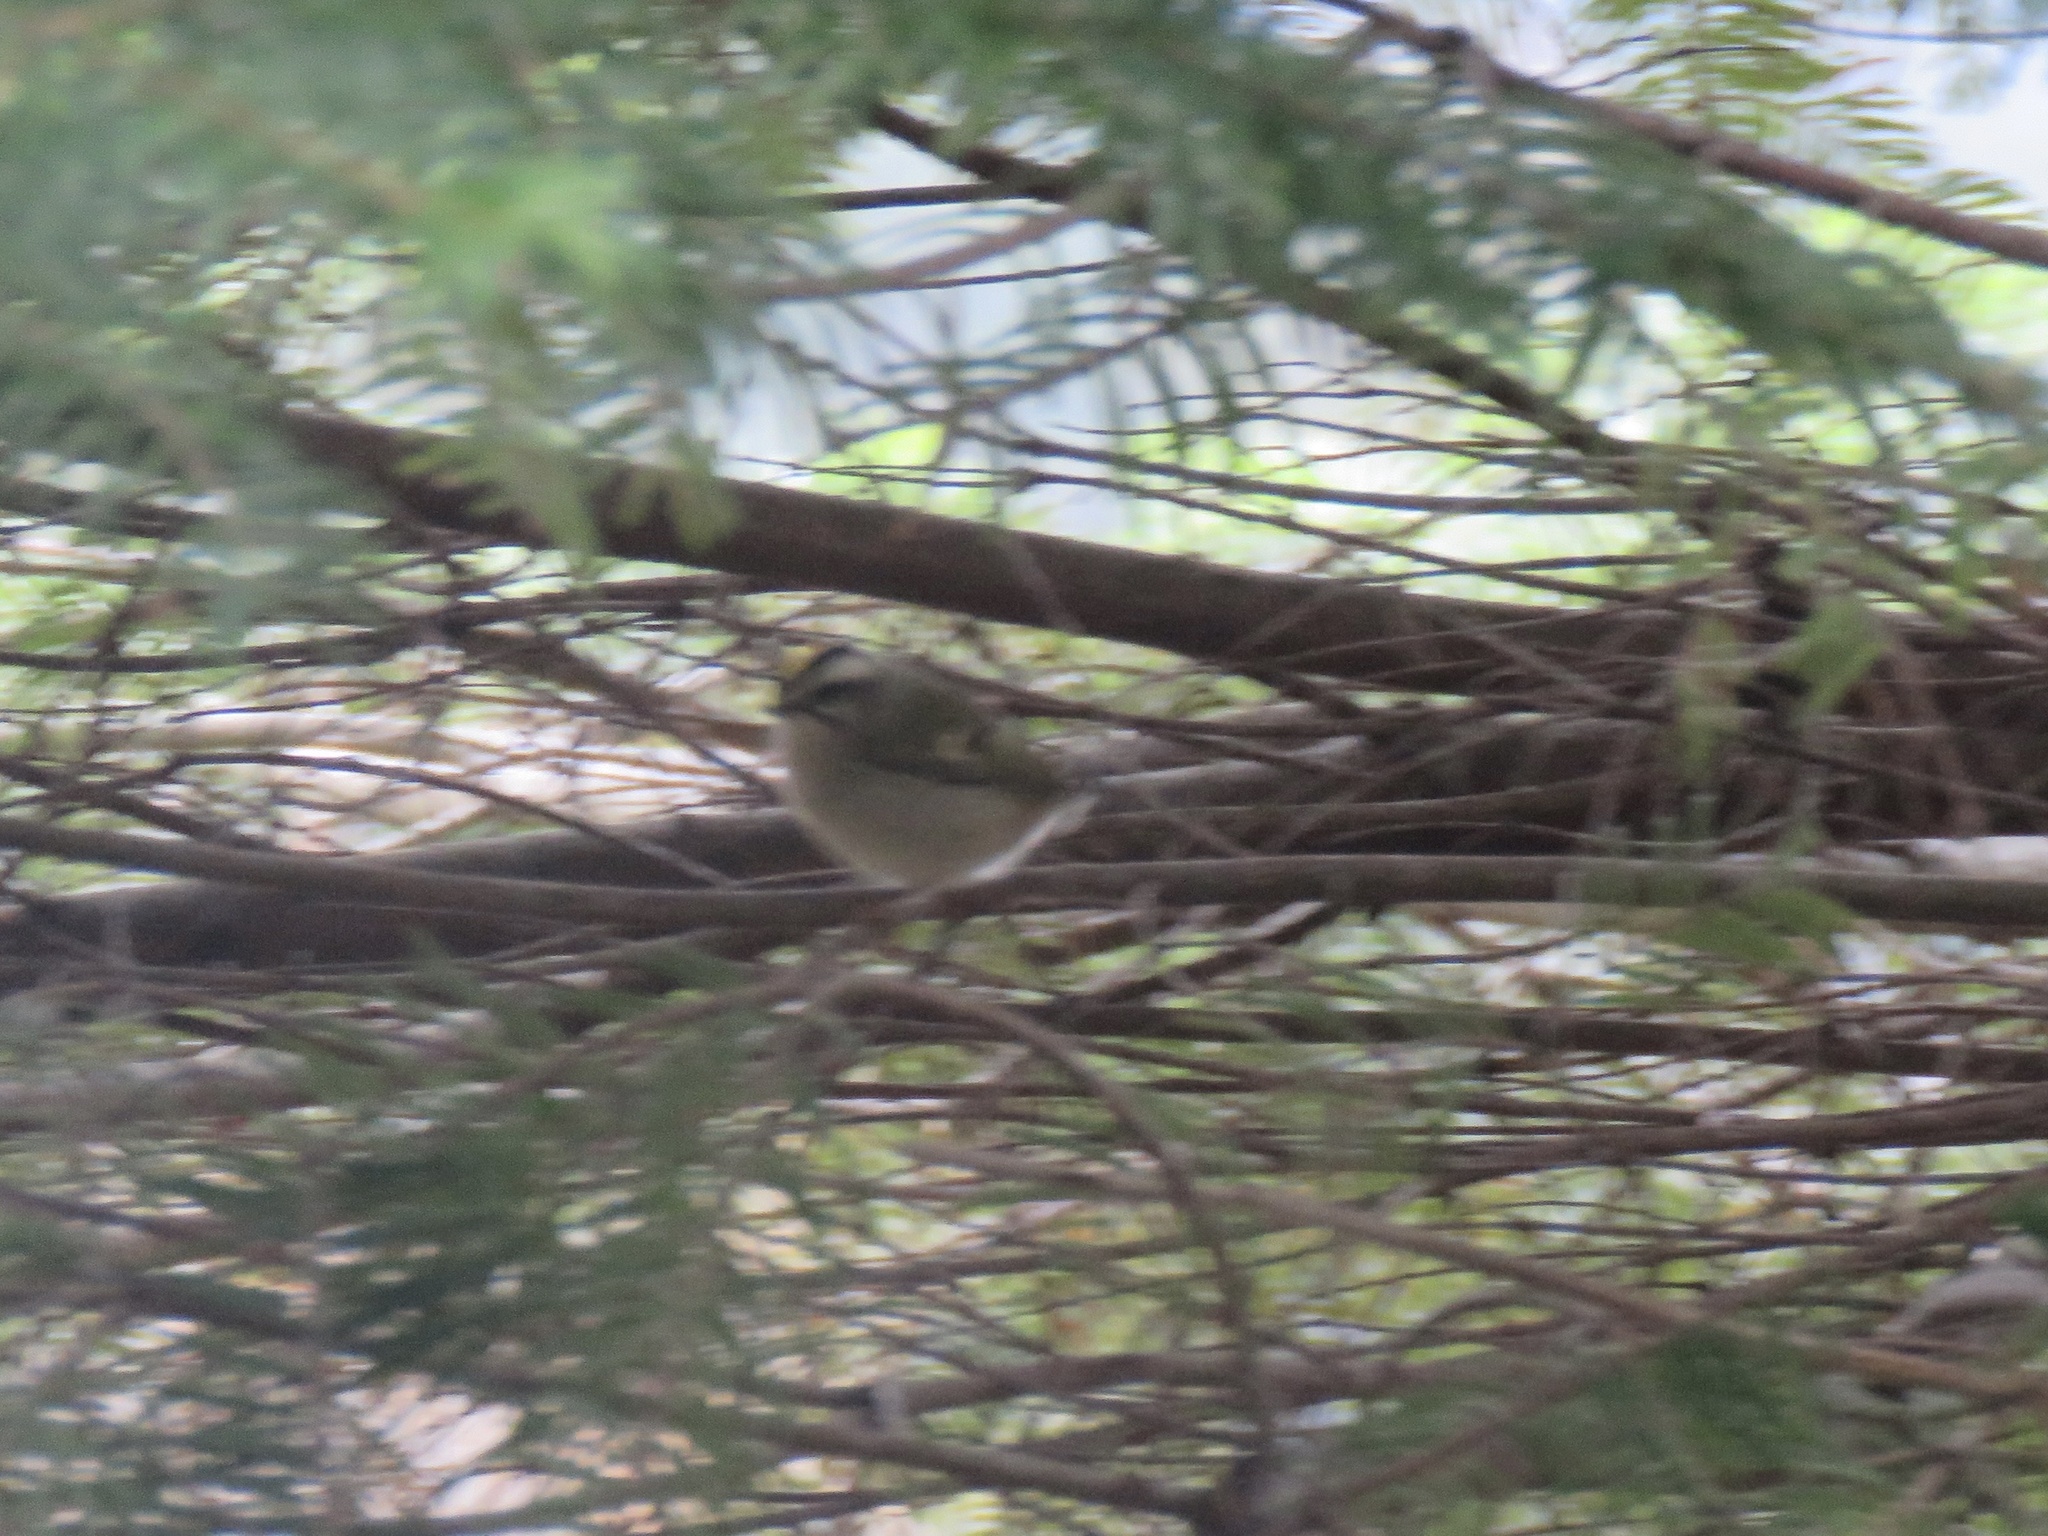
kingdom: Animalia
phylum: Chordata
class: Aves
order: Passeriformes
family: Regulidae
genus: Regulus
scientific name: Regulus satrapa
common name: Golden-crowned kinglet
